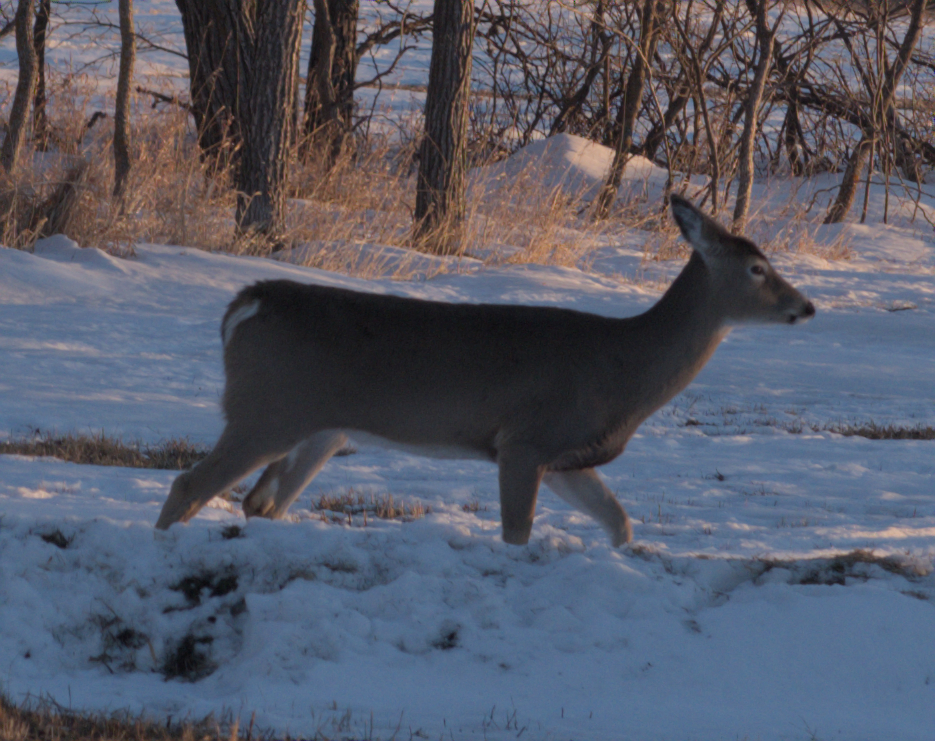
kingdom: Animalia
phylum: Chordata
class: Mammalia
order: Artiodactyla
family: Cervidae
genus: Odocoileus
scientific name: Odocoileus virginianus
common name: White-tailed deer
